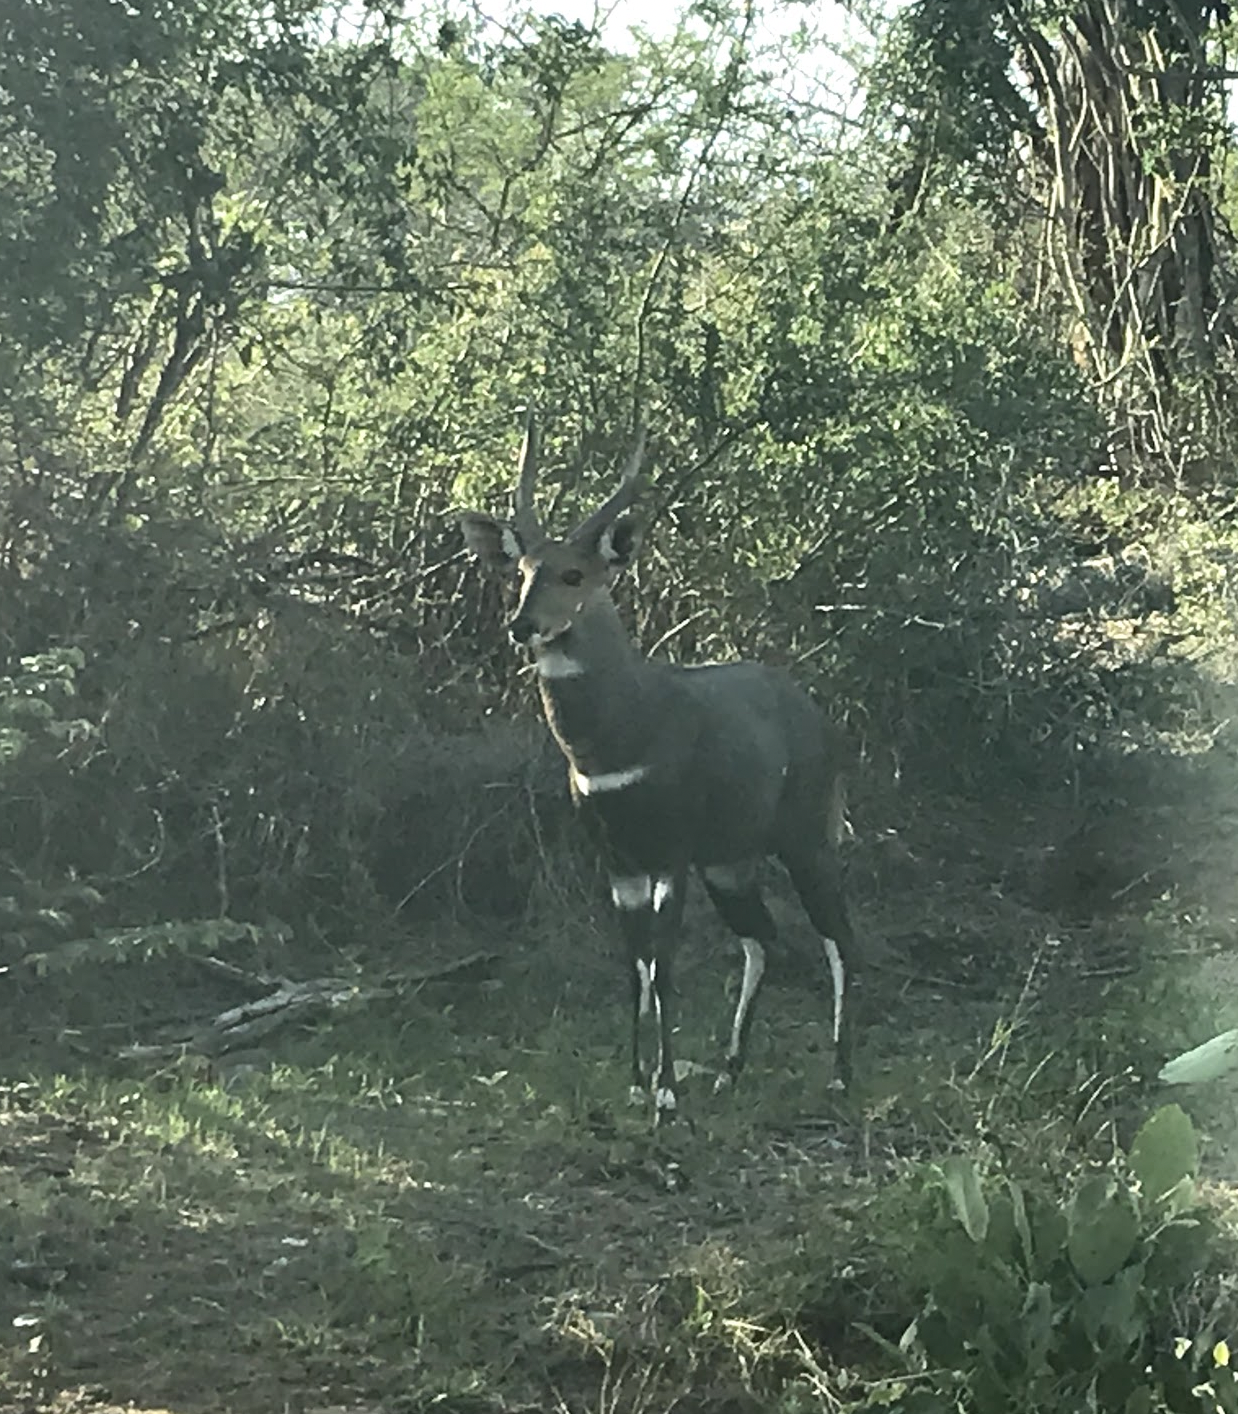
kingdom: Animalia
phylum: Chordata
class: Mammalia
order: Artiodactyla
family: Bovidae
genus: Tragelaphus
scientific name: Tragelaphus scriptus
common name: Bushbuck
